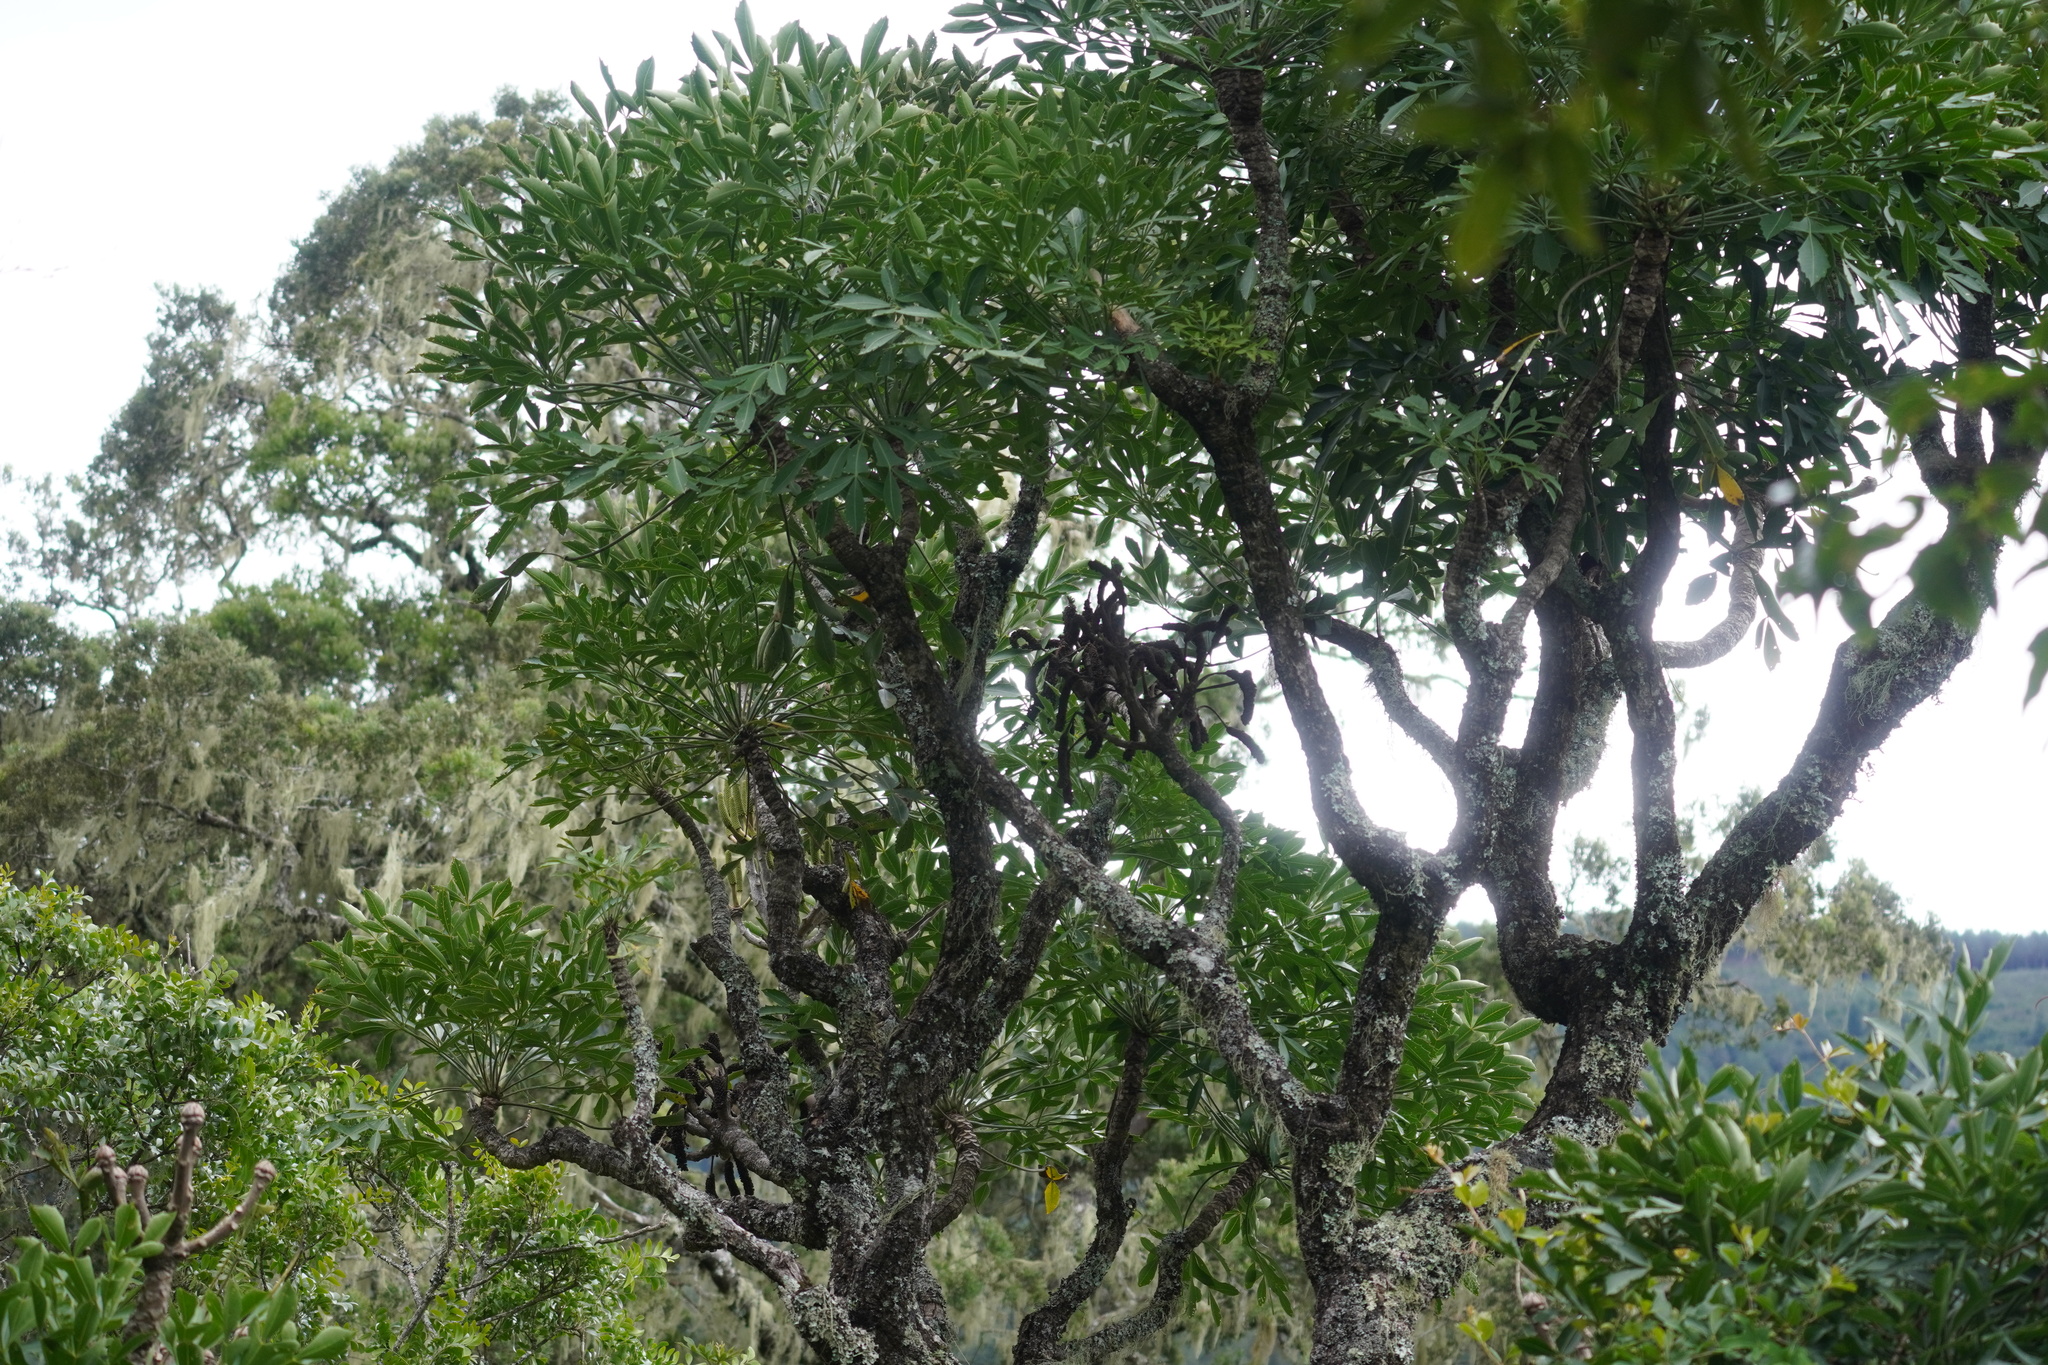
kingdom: Plantae
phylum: Tracheophyta
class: Magnoliopsida
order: Apiales
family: Araliaceae
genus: Cussonia
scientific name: Cussonia spicata
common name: Common cabbagetree
